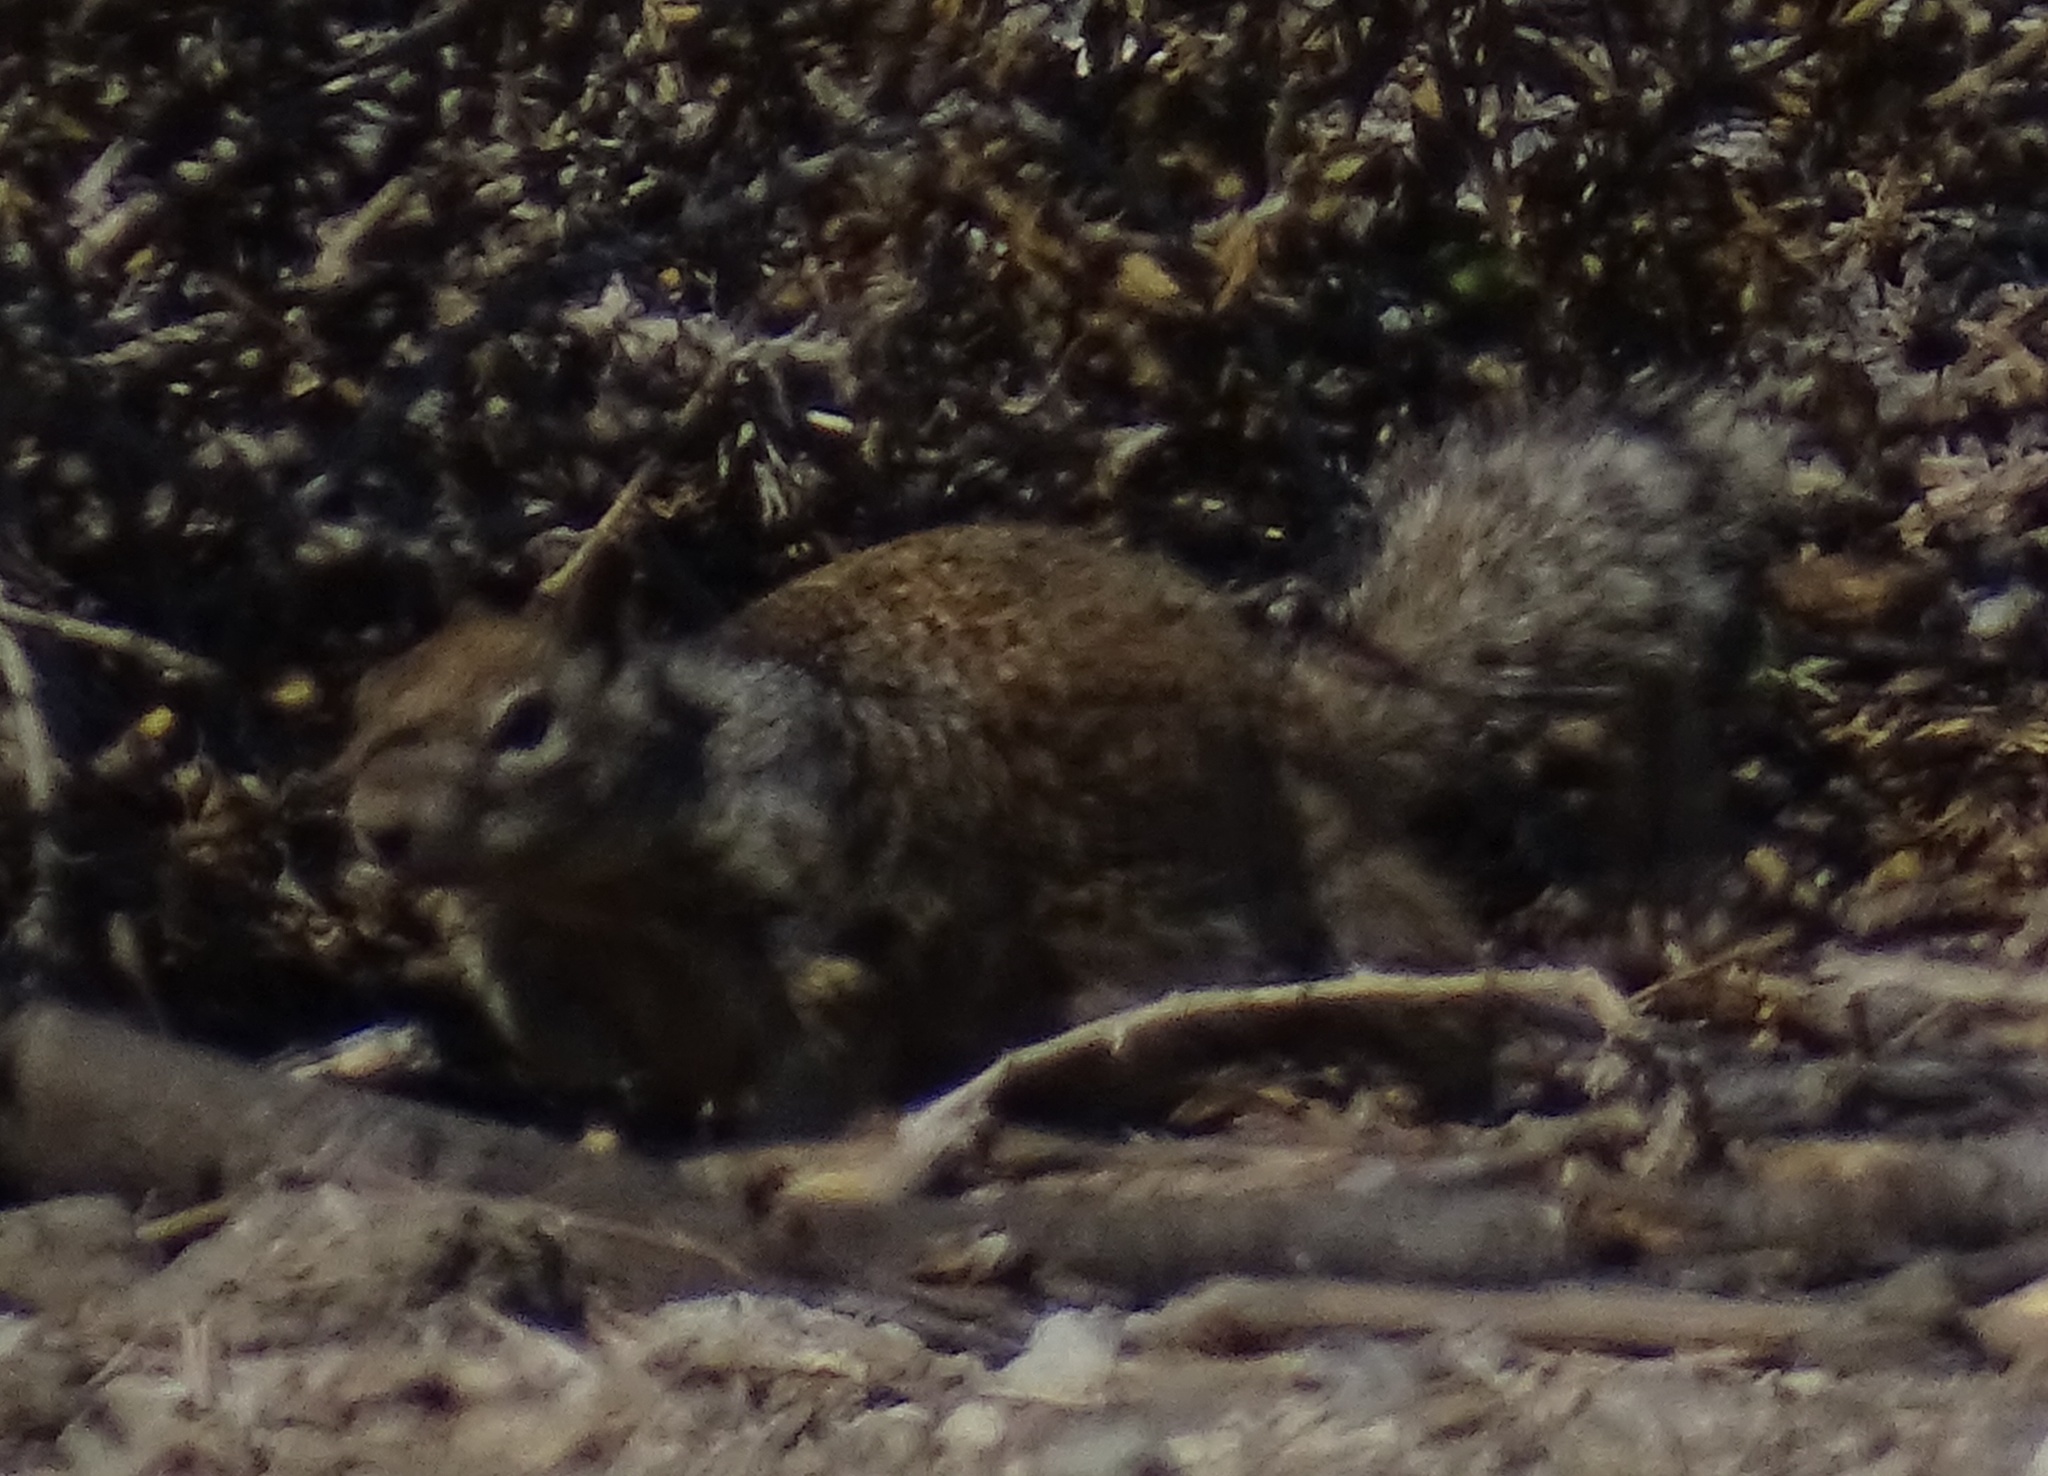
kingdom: Animalia
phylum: Chordata
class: Mammalia
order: Rodentia
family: Sciuridae
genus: Otospermophilus
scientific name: Otospermophilus beecheyi
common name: California ground squirrel
